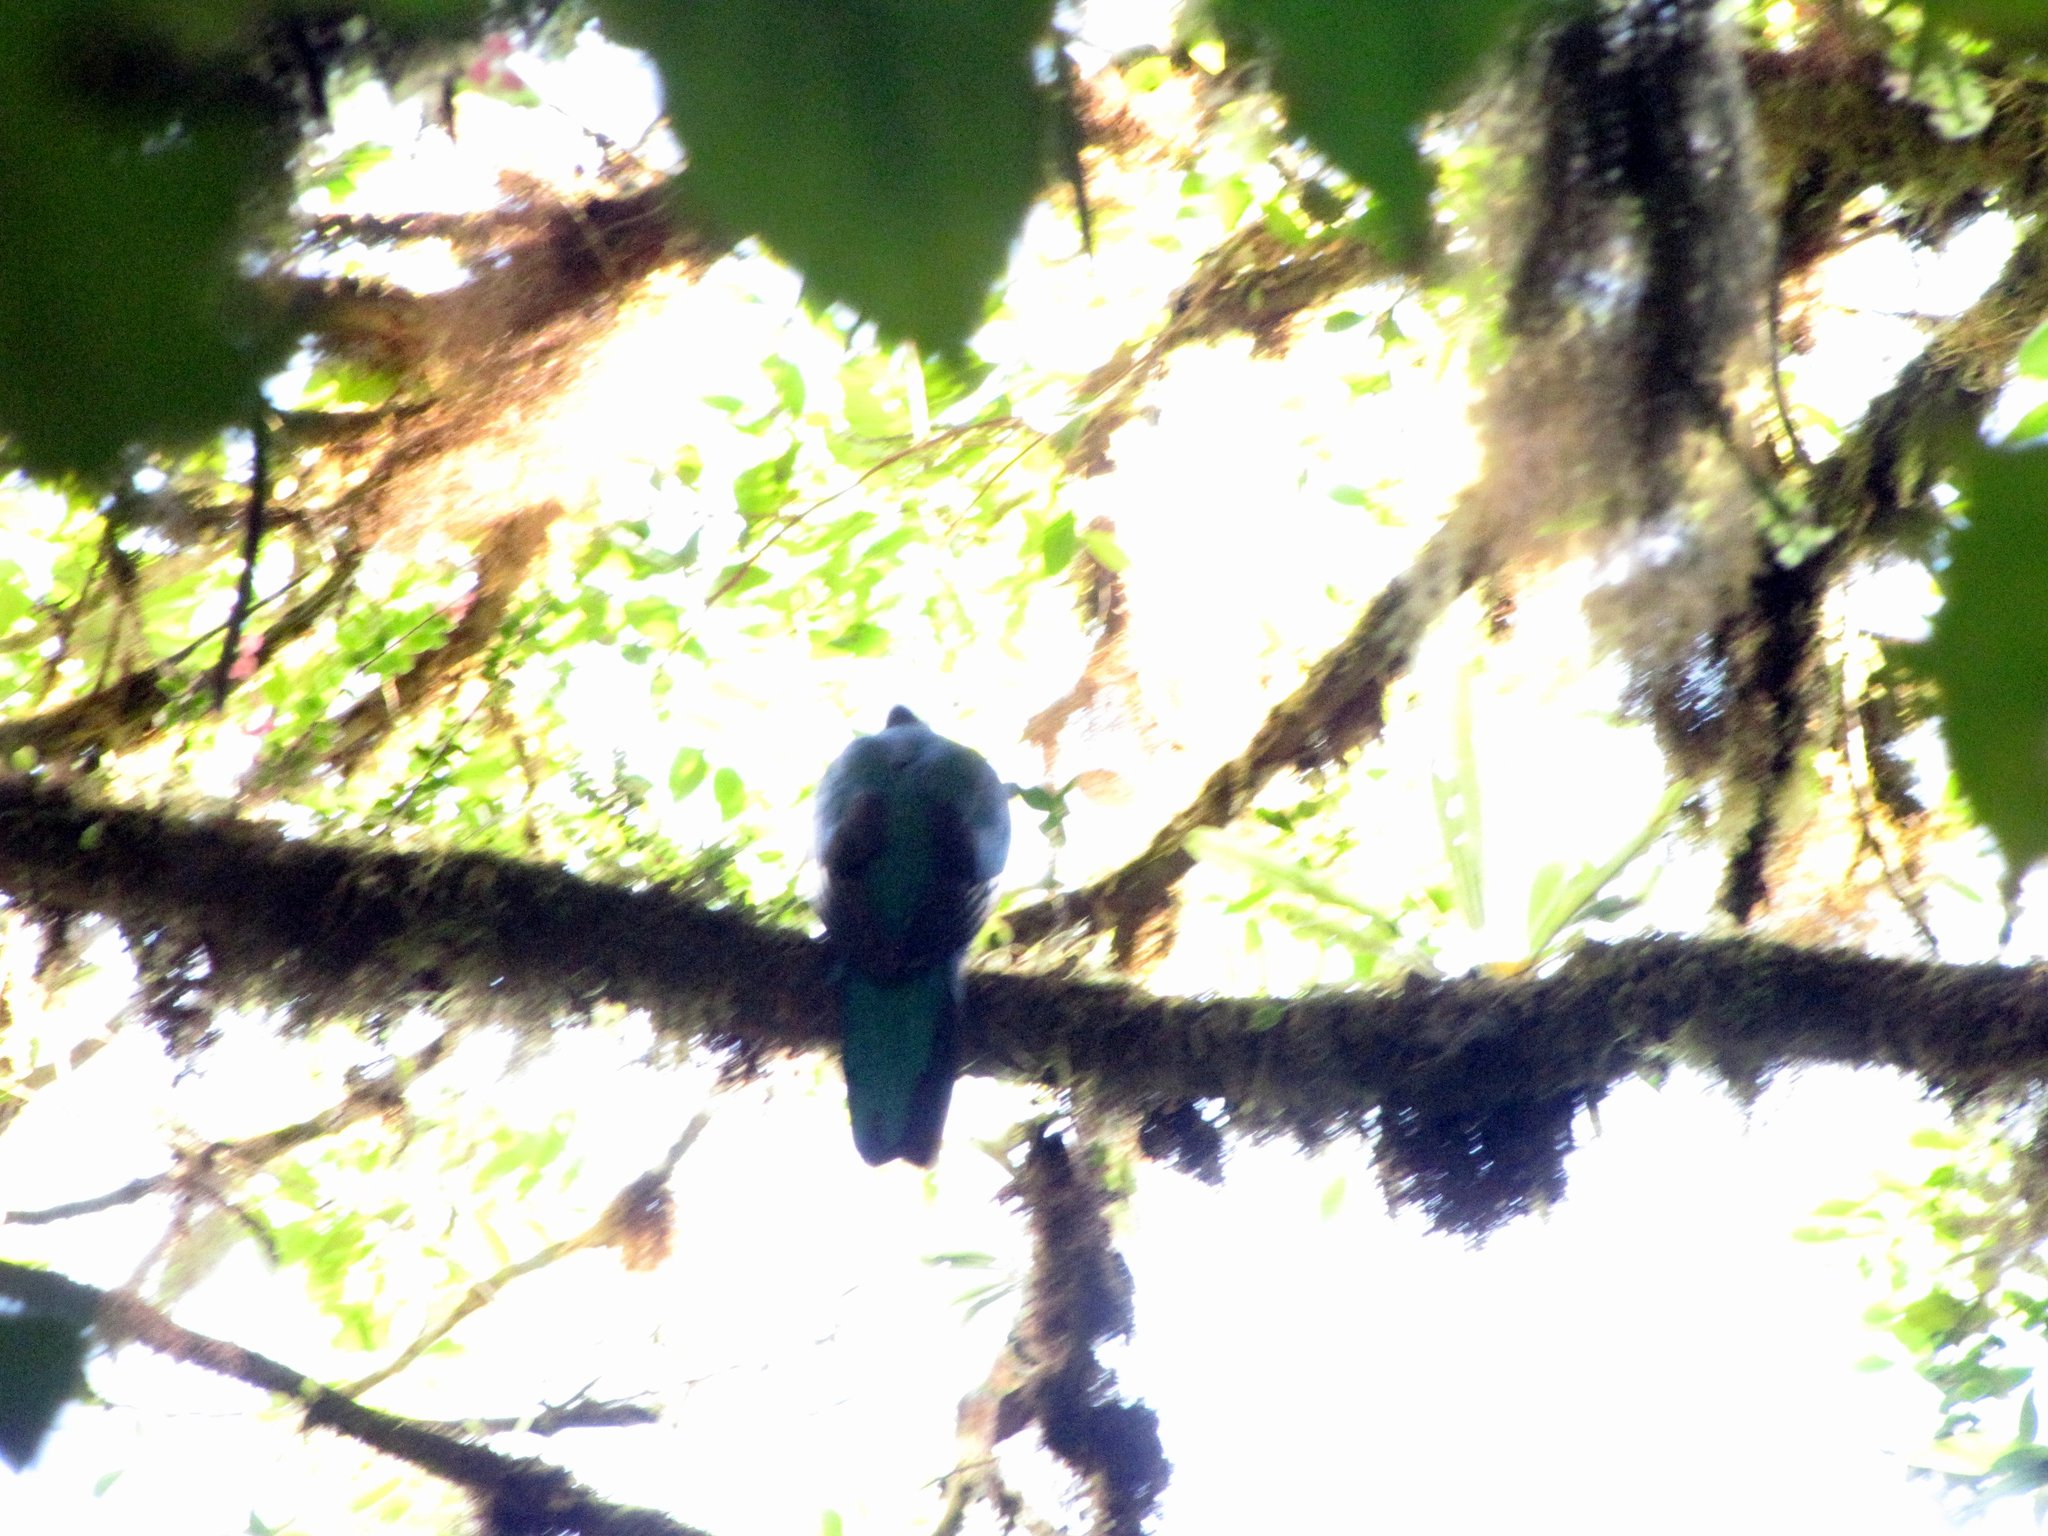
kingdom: Animalia
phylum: Chordata
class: Aves
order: Trogoniformes
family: Trogonidae
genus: Pharomachrus
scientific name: Pharomachrus mocinno
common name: Resplendent quetzal
